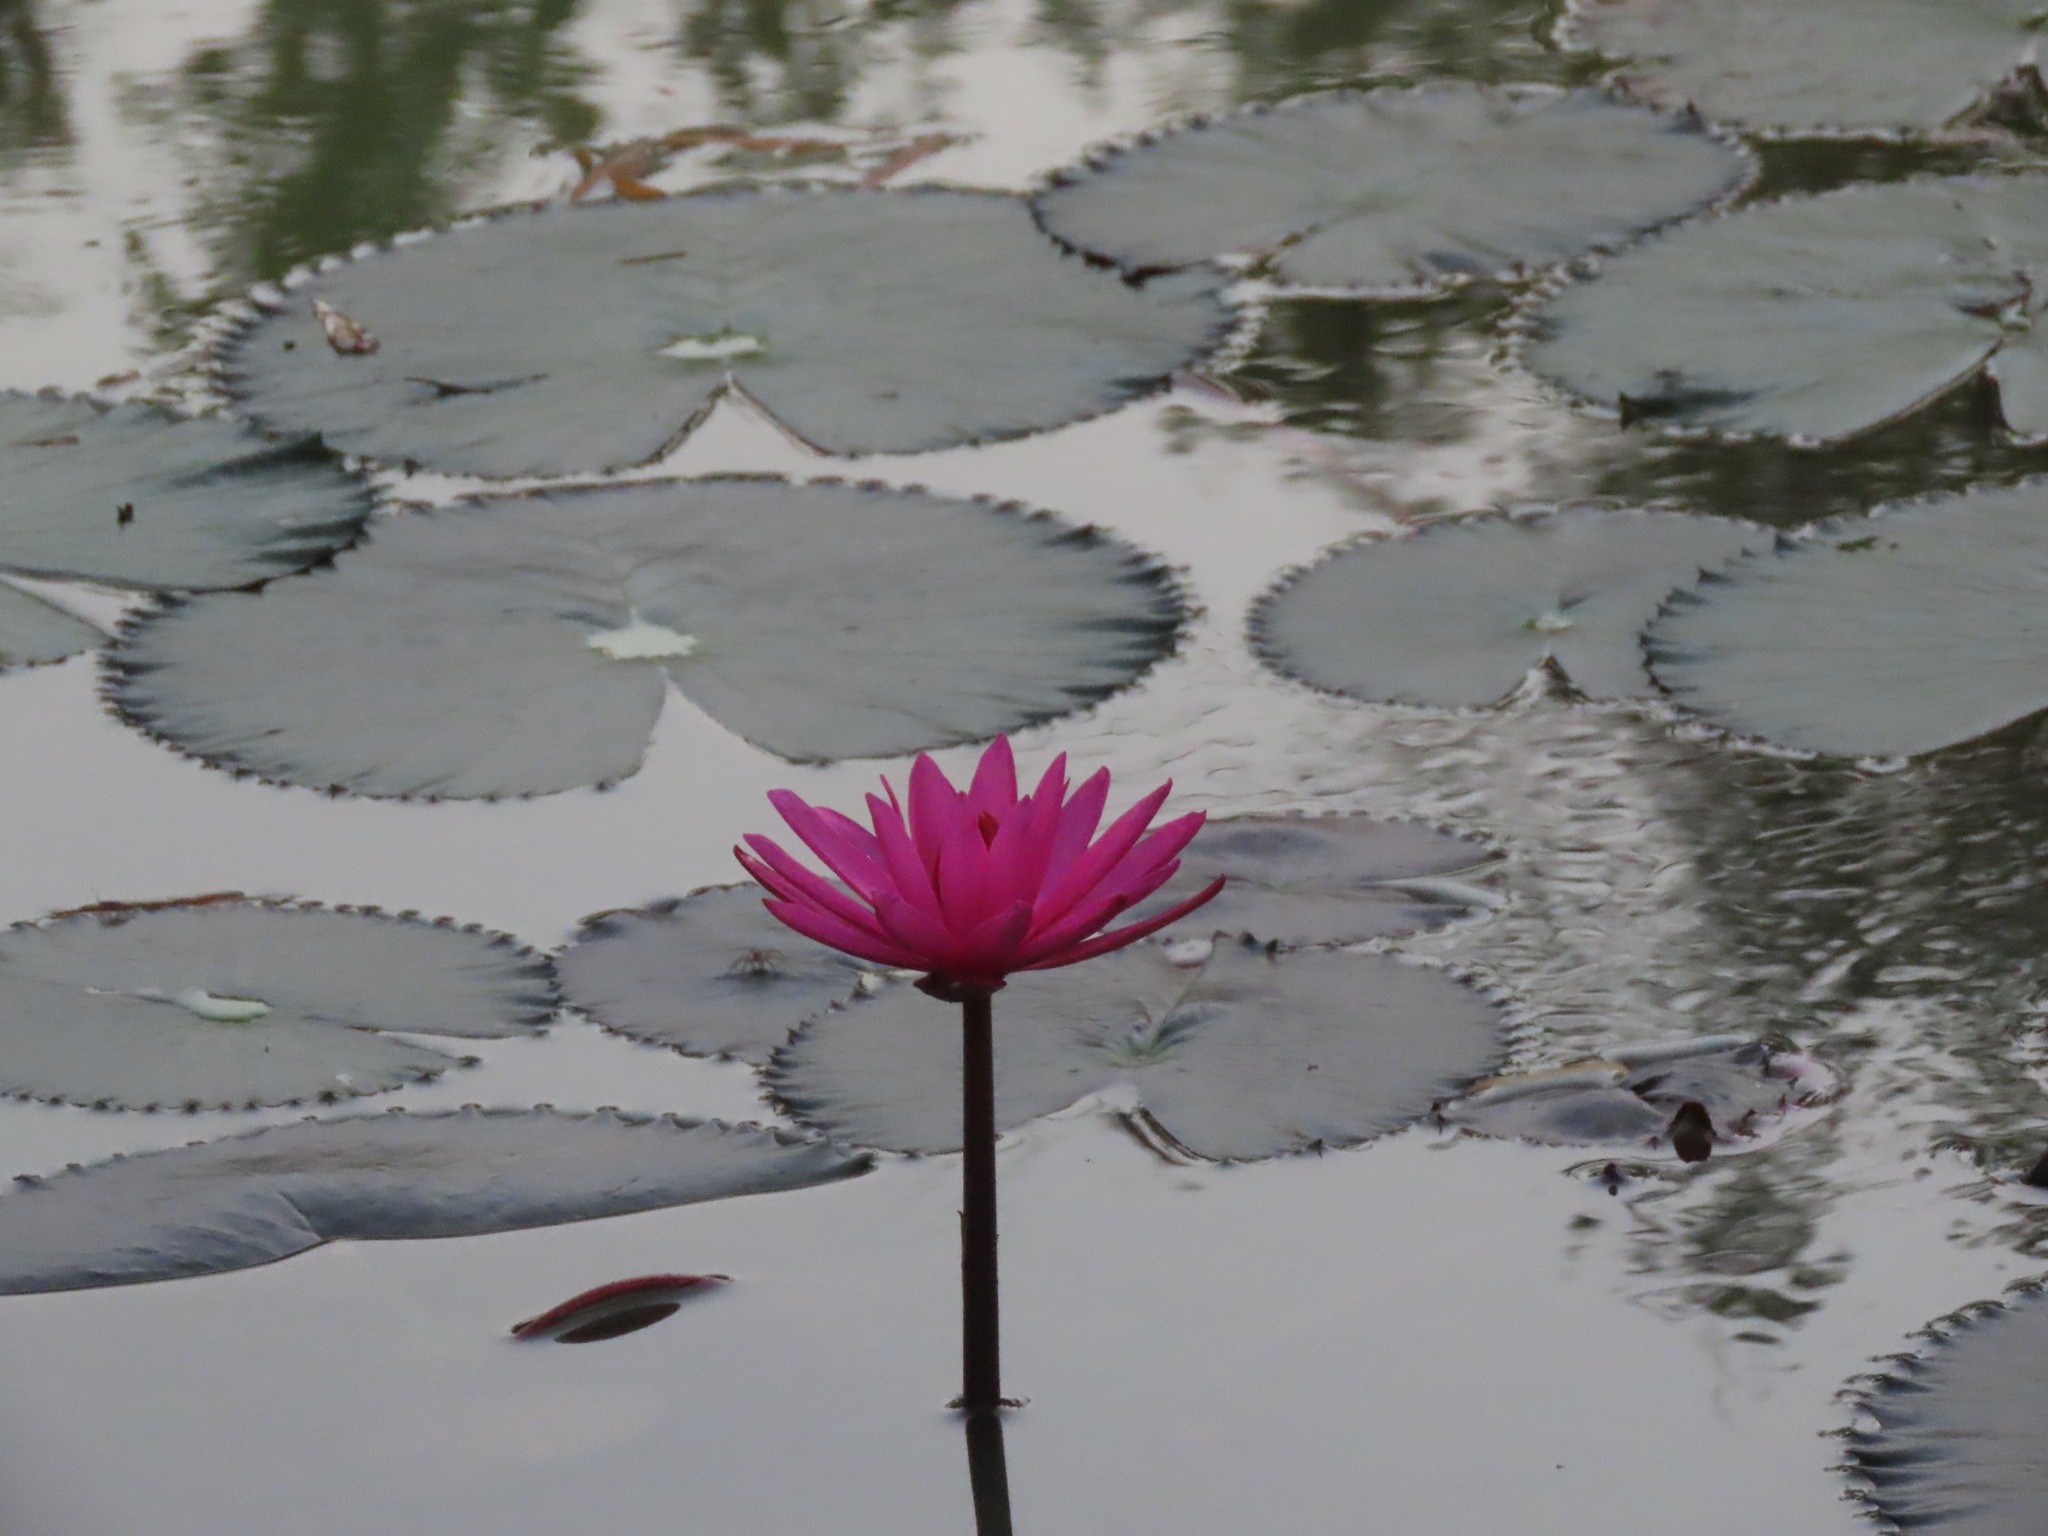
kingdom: Plantae
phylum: Tracheophyta
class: Magnoliopsida
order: Nymphaeales
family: Nymphaeaceae
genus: Nymphaea
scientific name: Nymphaea rubra
